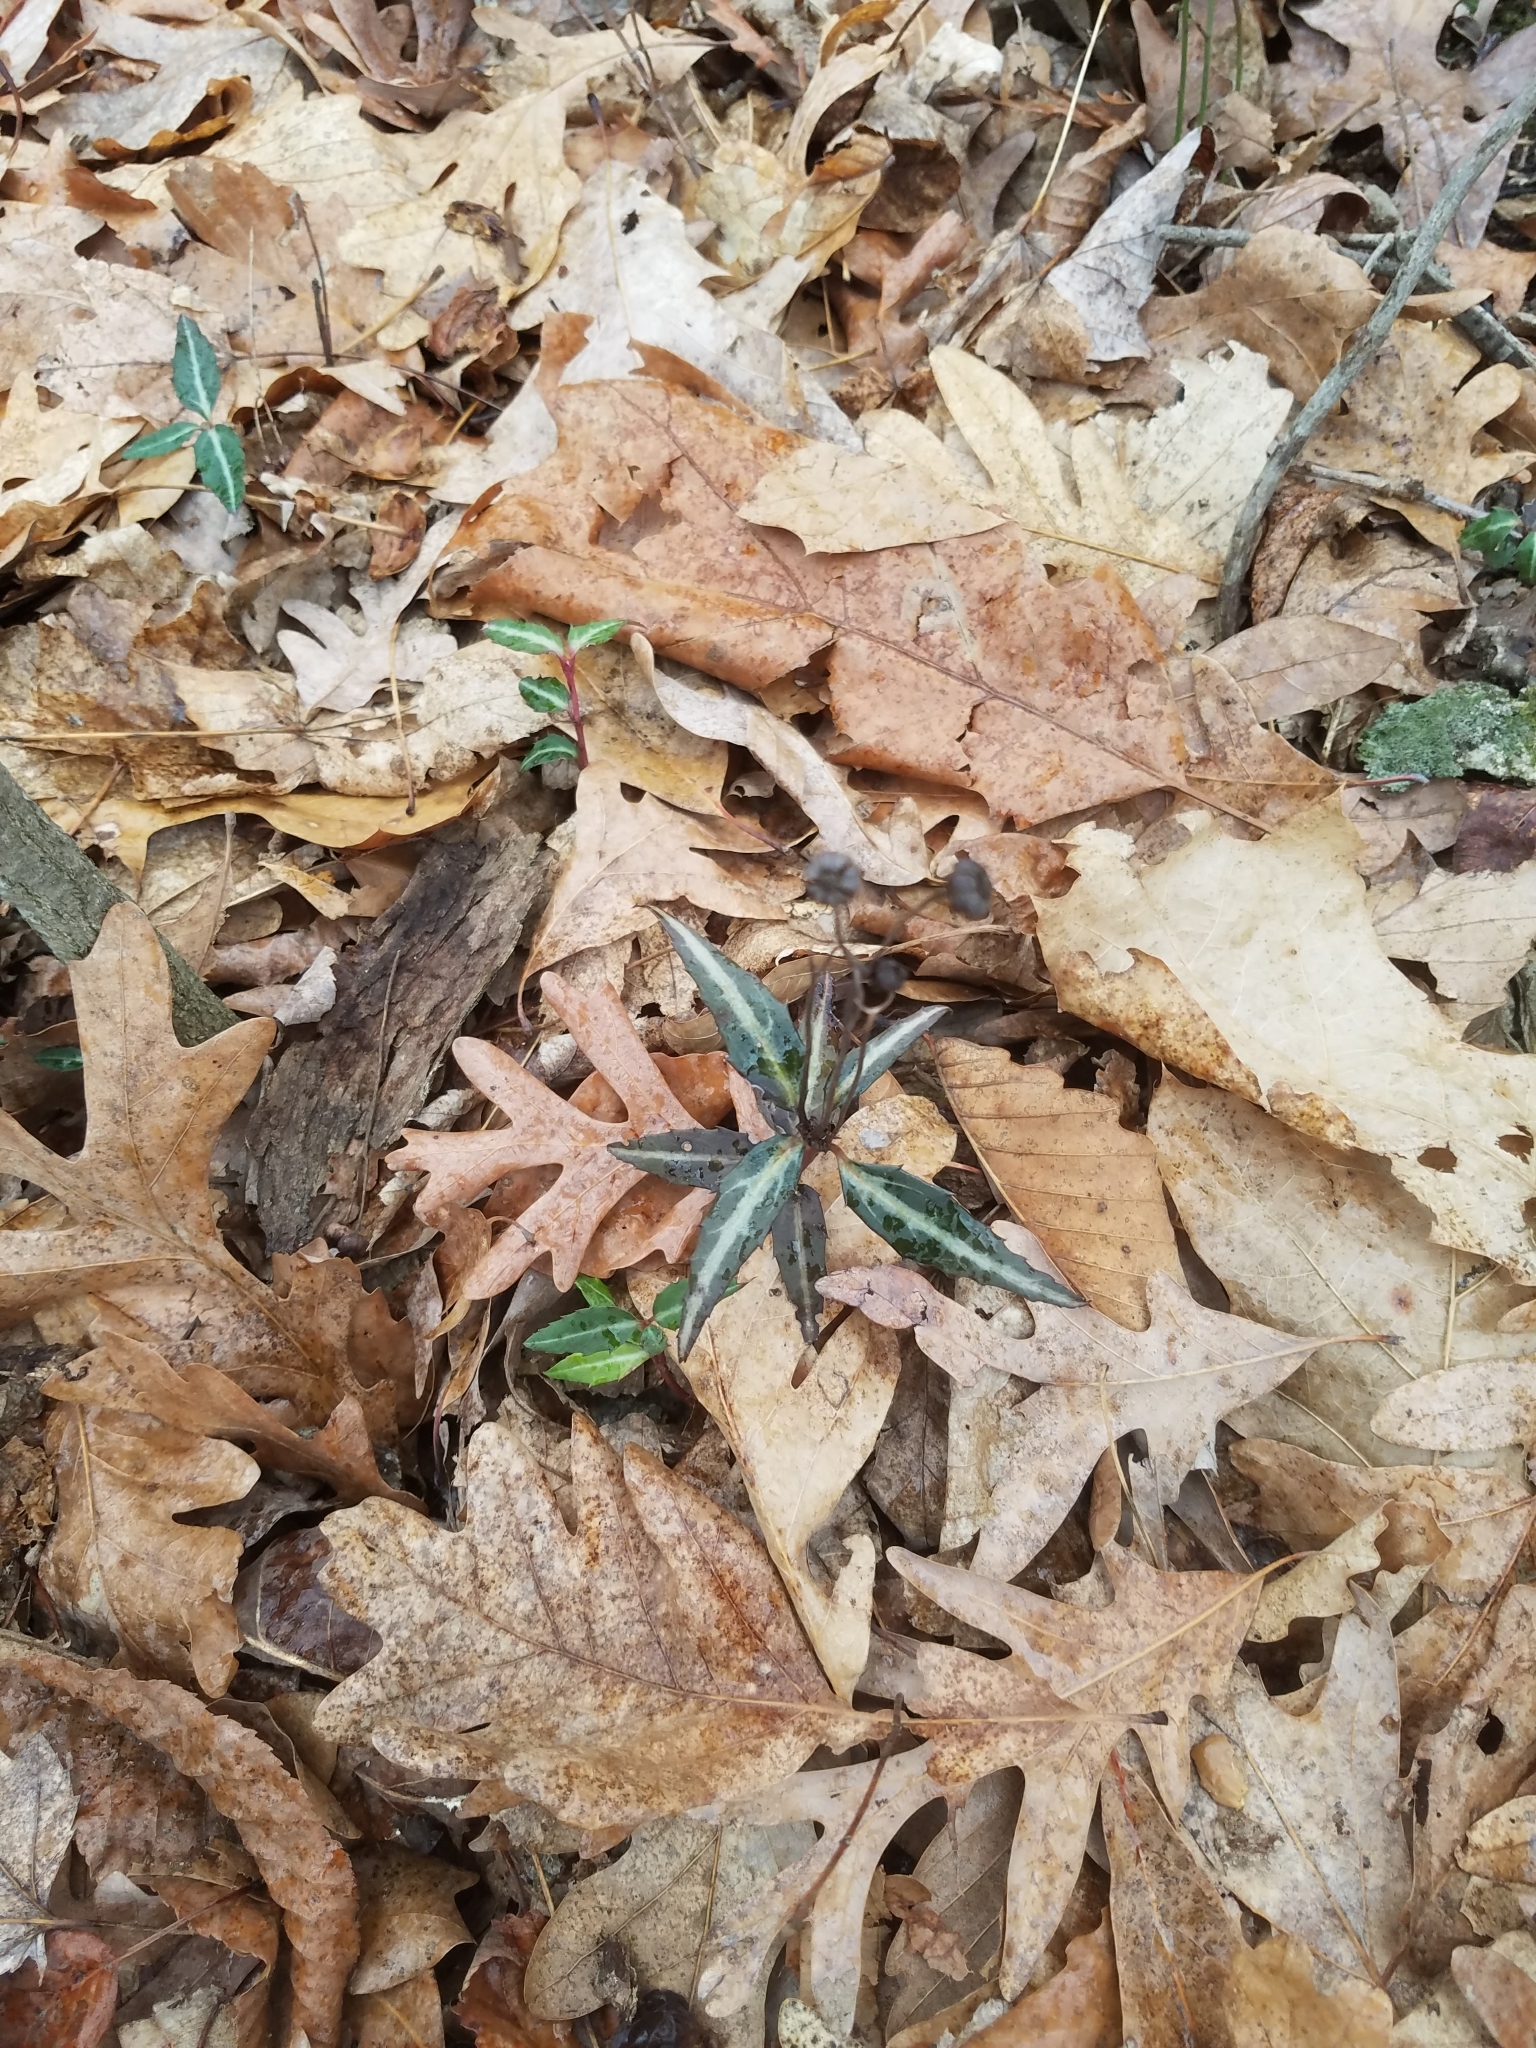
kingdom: Plantae
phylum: Tracheophyta
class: Magnoliopsida
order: Ericales
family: Ericaceae
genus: Chimaphila
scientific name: Chimaphila maculata
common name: Spotted pipsissewa
